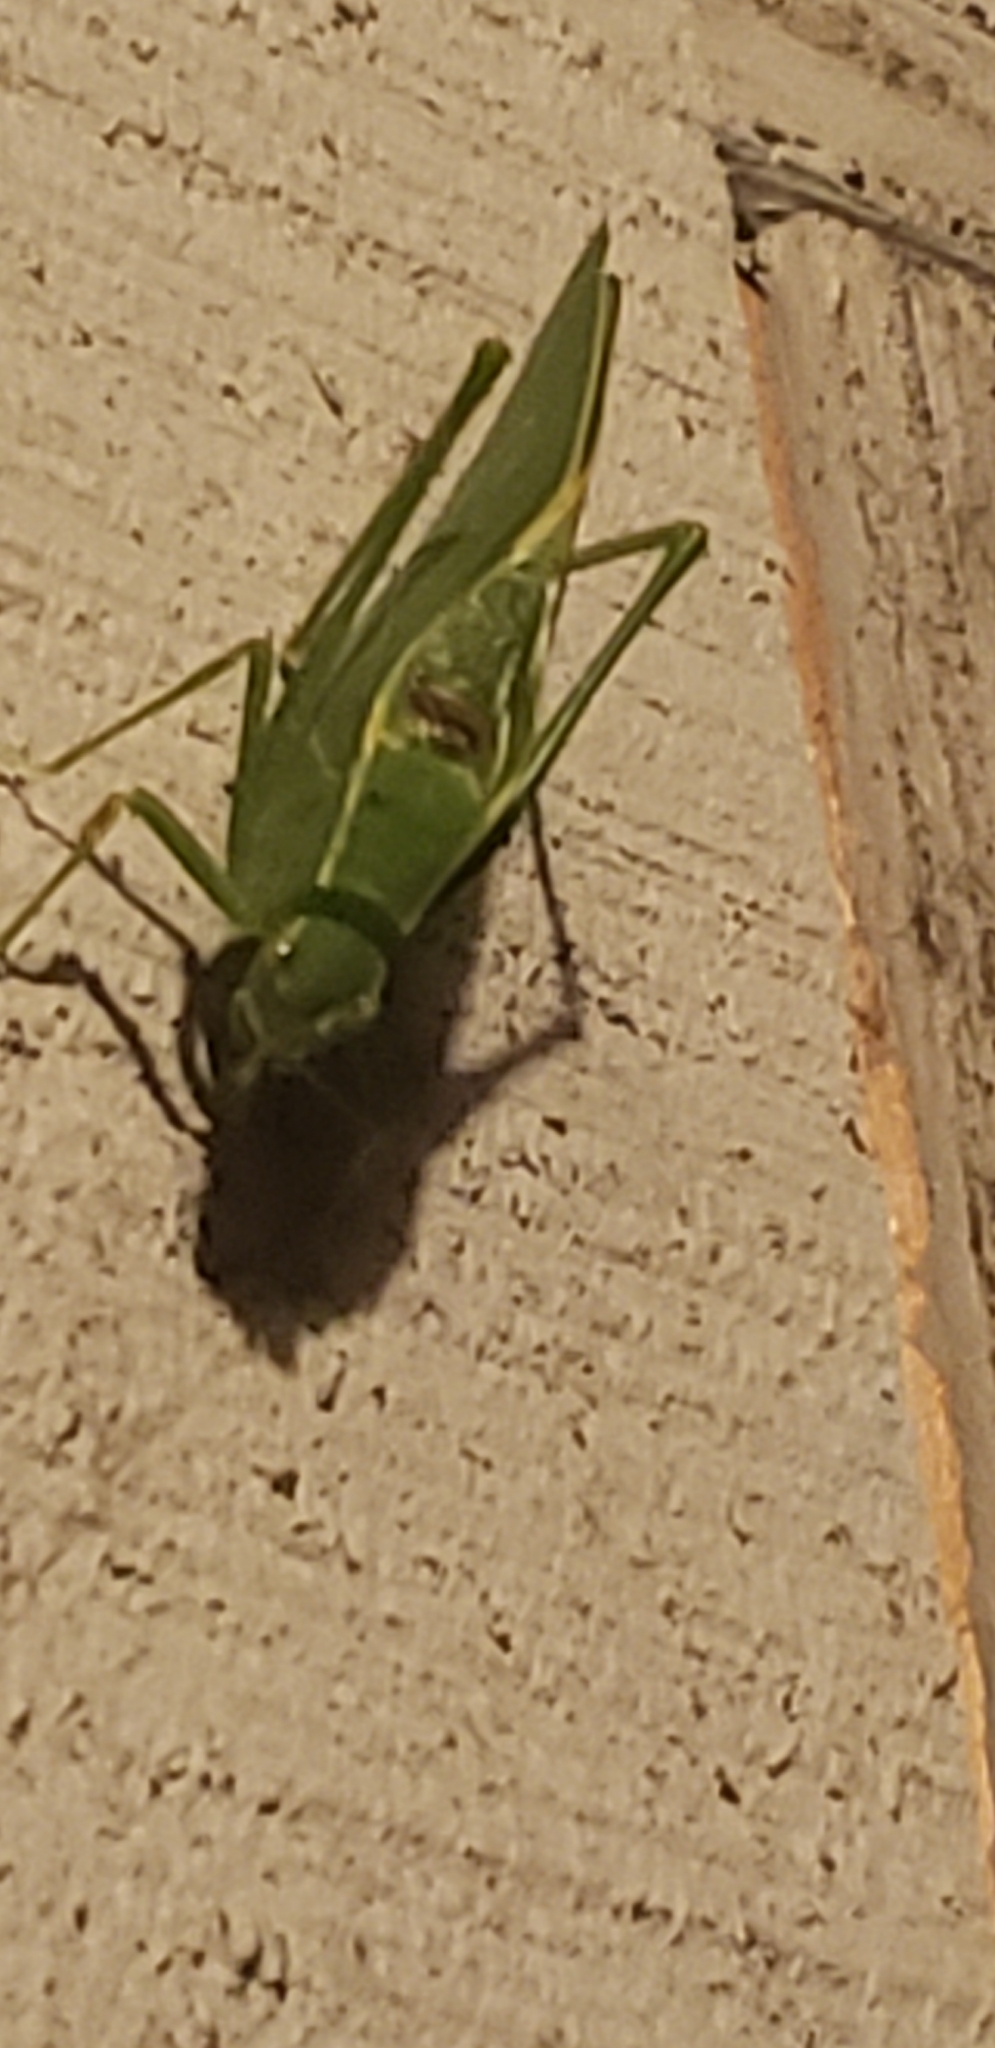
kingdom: Animalia
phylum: Arthropoda
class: Insecta
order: Orthoptera
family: Tettigoniidae
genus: Microcentrum
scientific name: Microcentrum retinerve
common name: Angular-winged katydid
